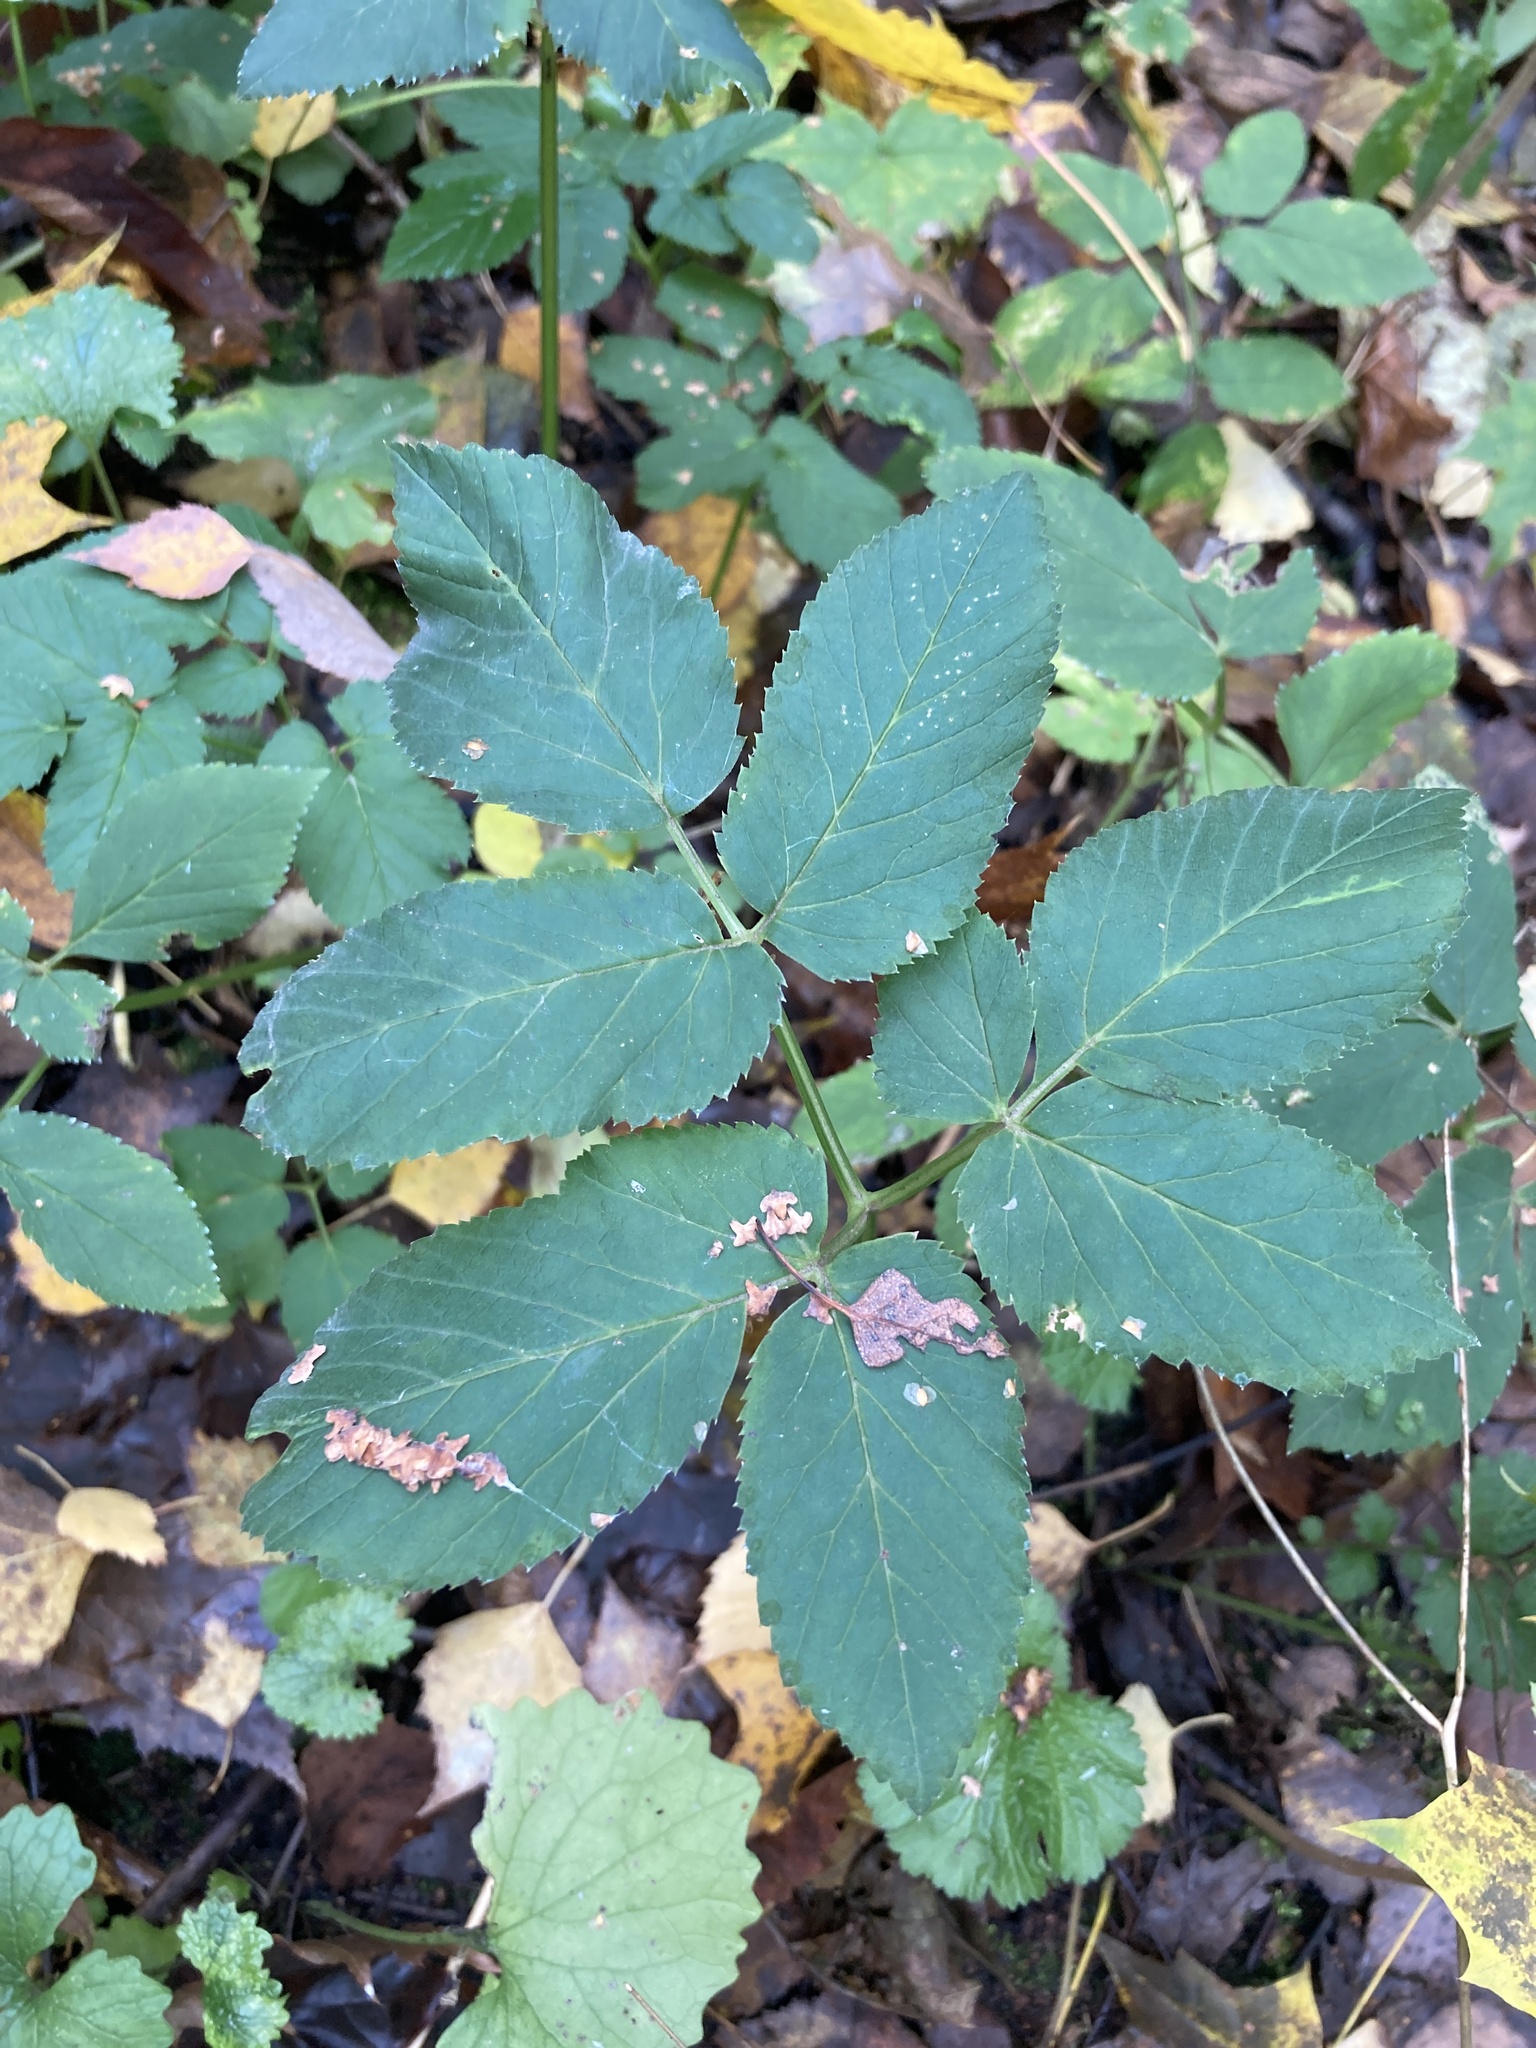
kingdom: Plantae
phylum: Tracheophyta
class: Magnoliopsida
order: Apiales
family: Apiaceae
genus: Aegopodium
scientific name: Aegopodium podagraria
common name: Ground-elder
